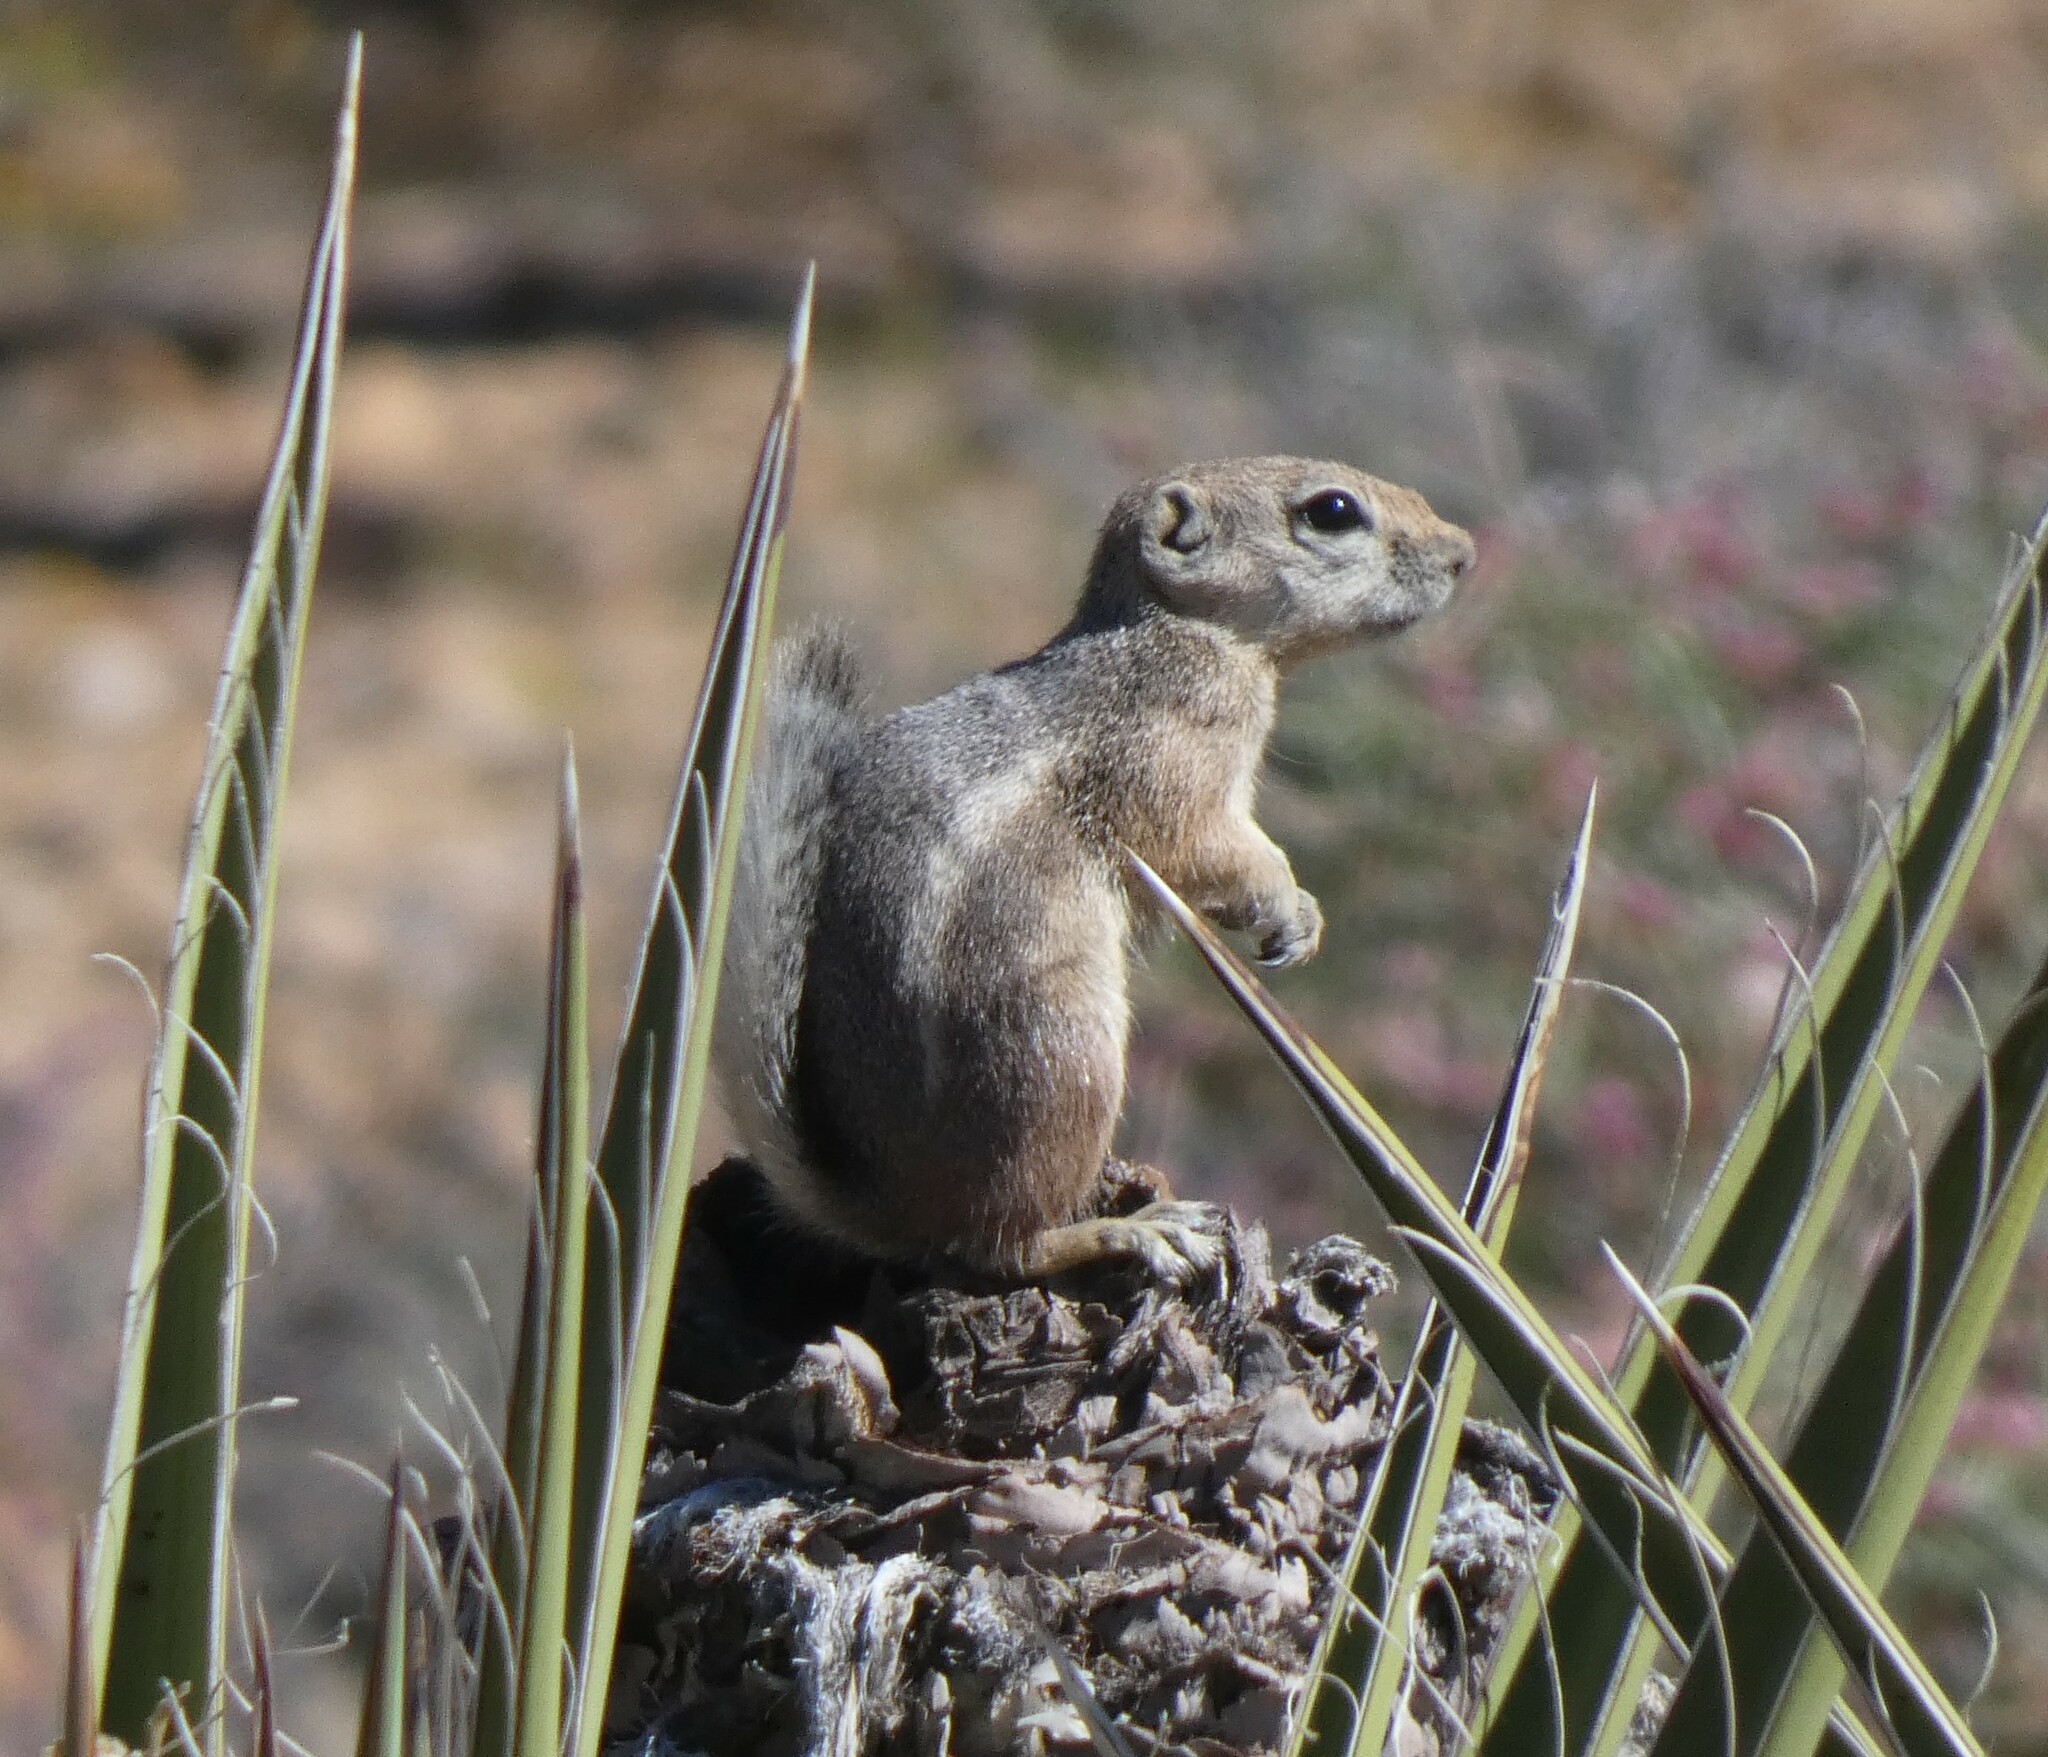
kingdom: Animalia
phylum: Chordata
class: Mammalia
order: Rodentia
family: Sciuridae
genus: Ammospermophilus
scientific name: Ammospermophilus leucurus
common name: White-tailed antelope squirrel
